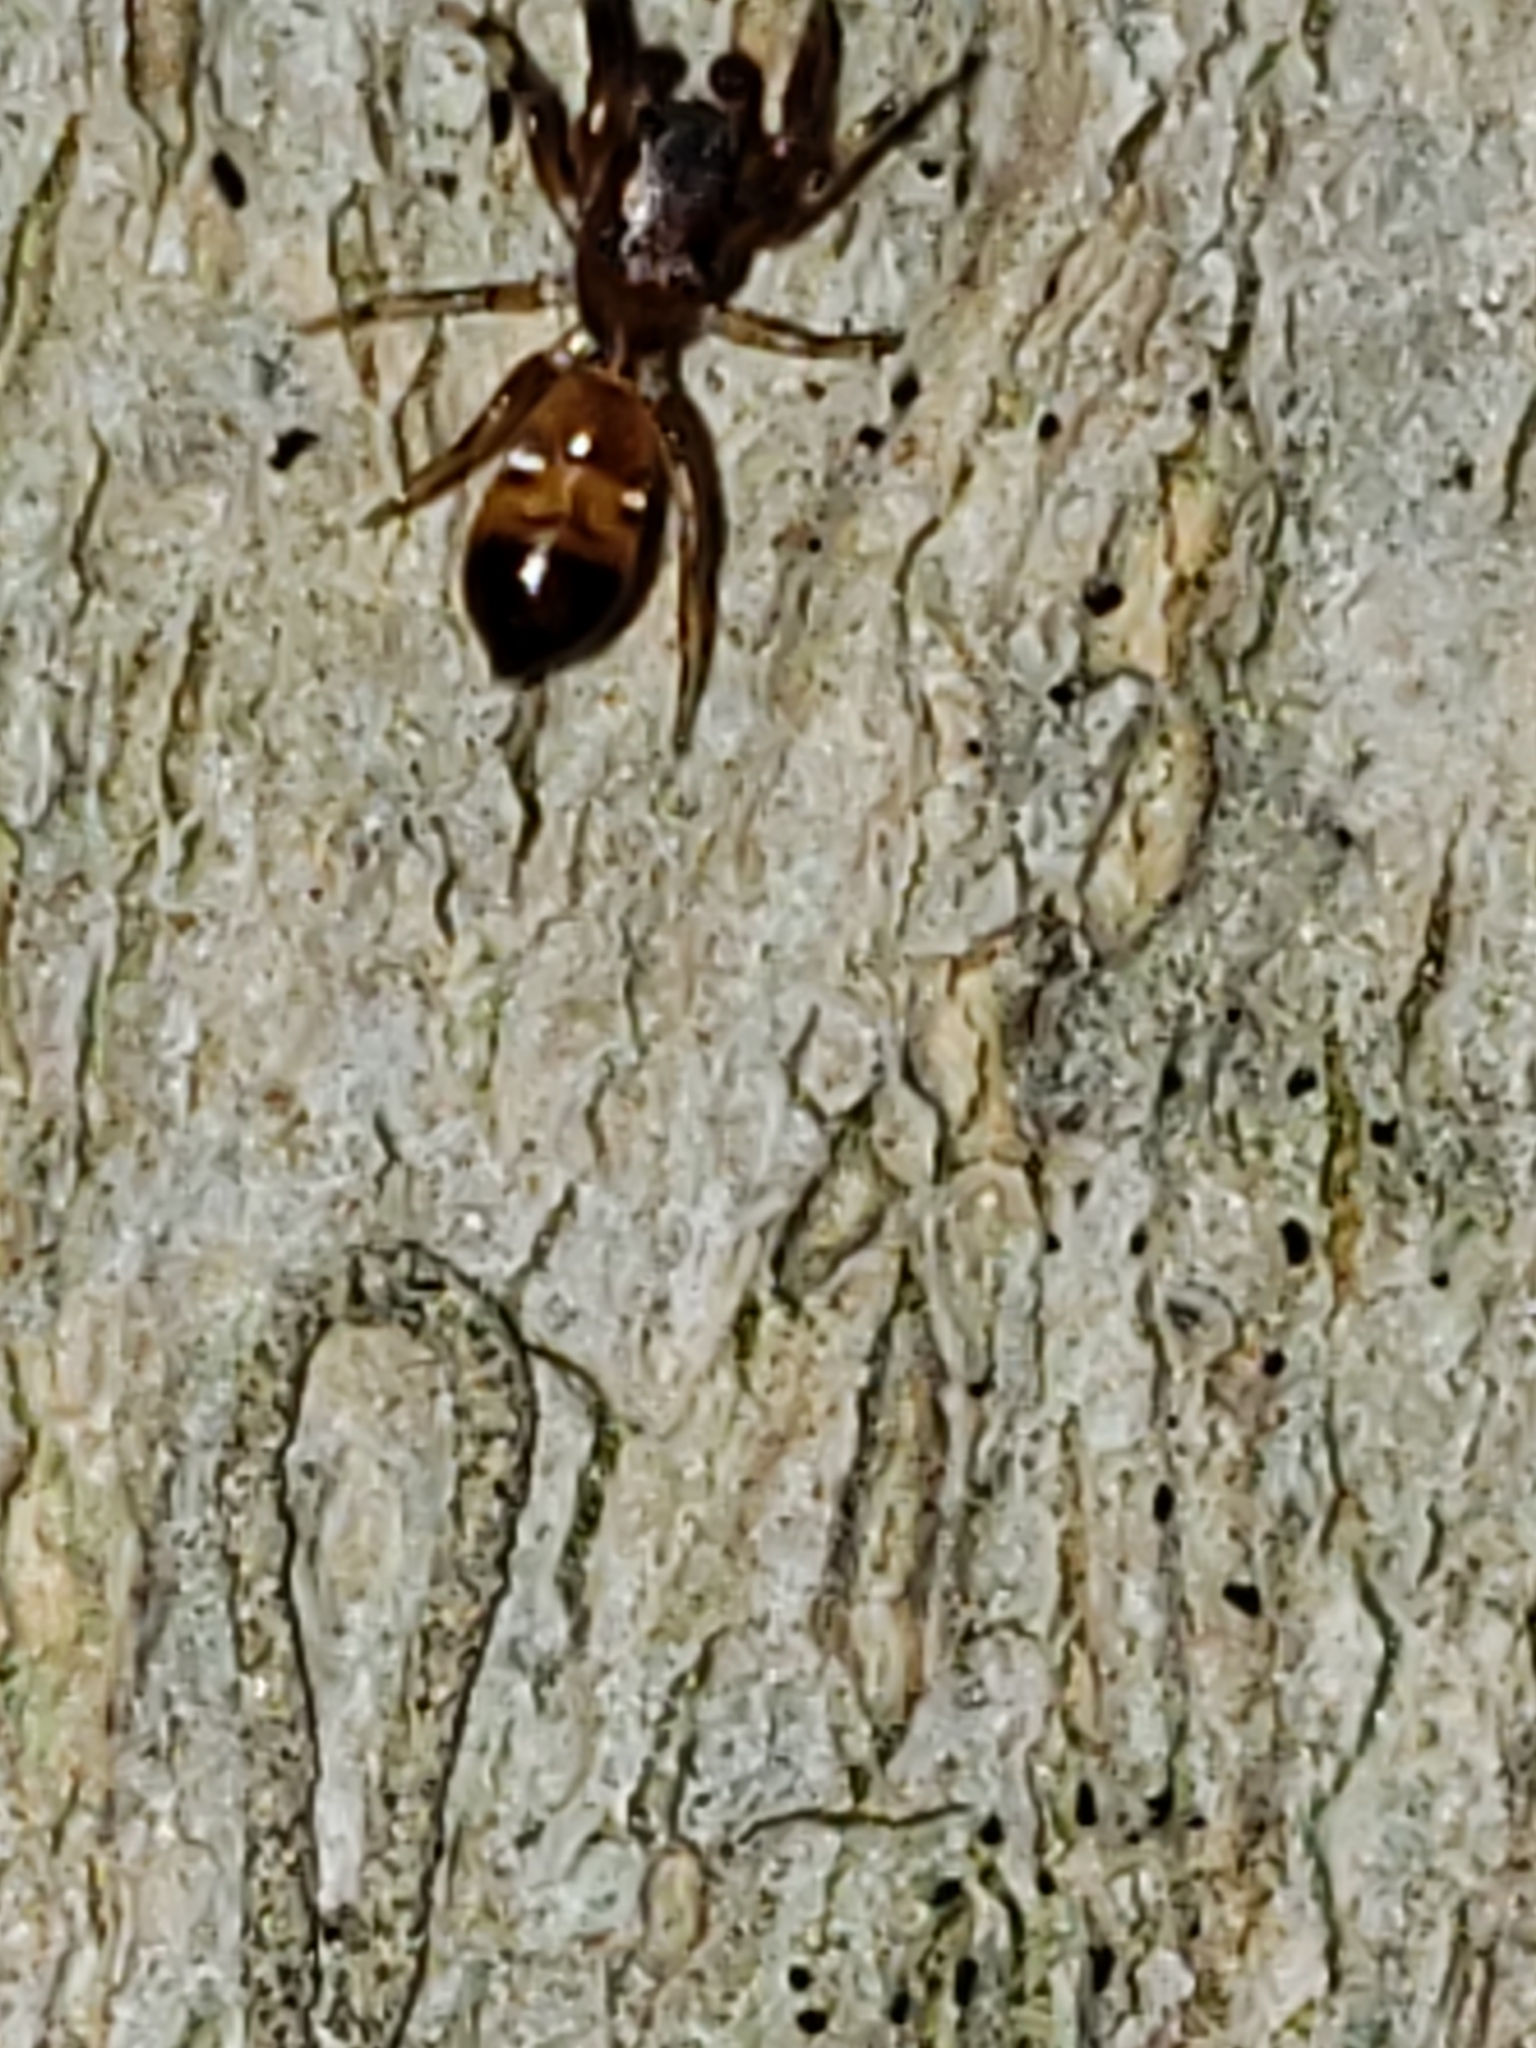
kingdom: Animalia
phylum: Arthropoda
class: Arachnida
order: Araneae
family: Salticidae
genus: Synageles
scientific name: Synageles noxiosus
